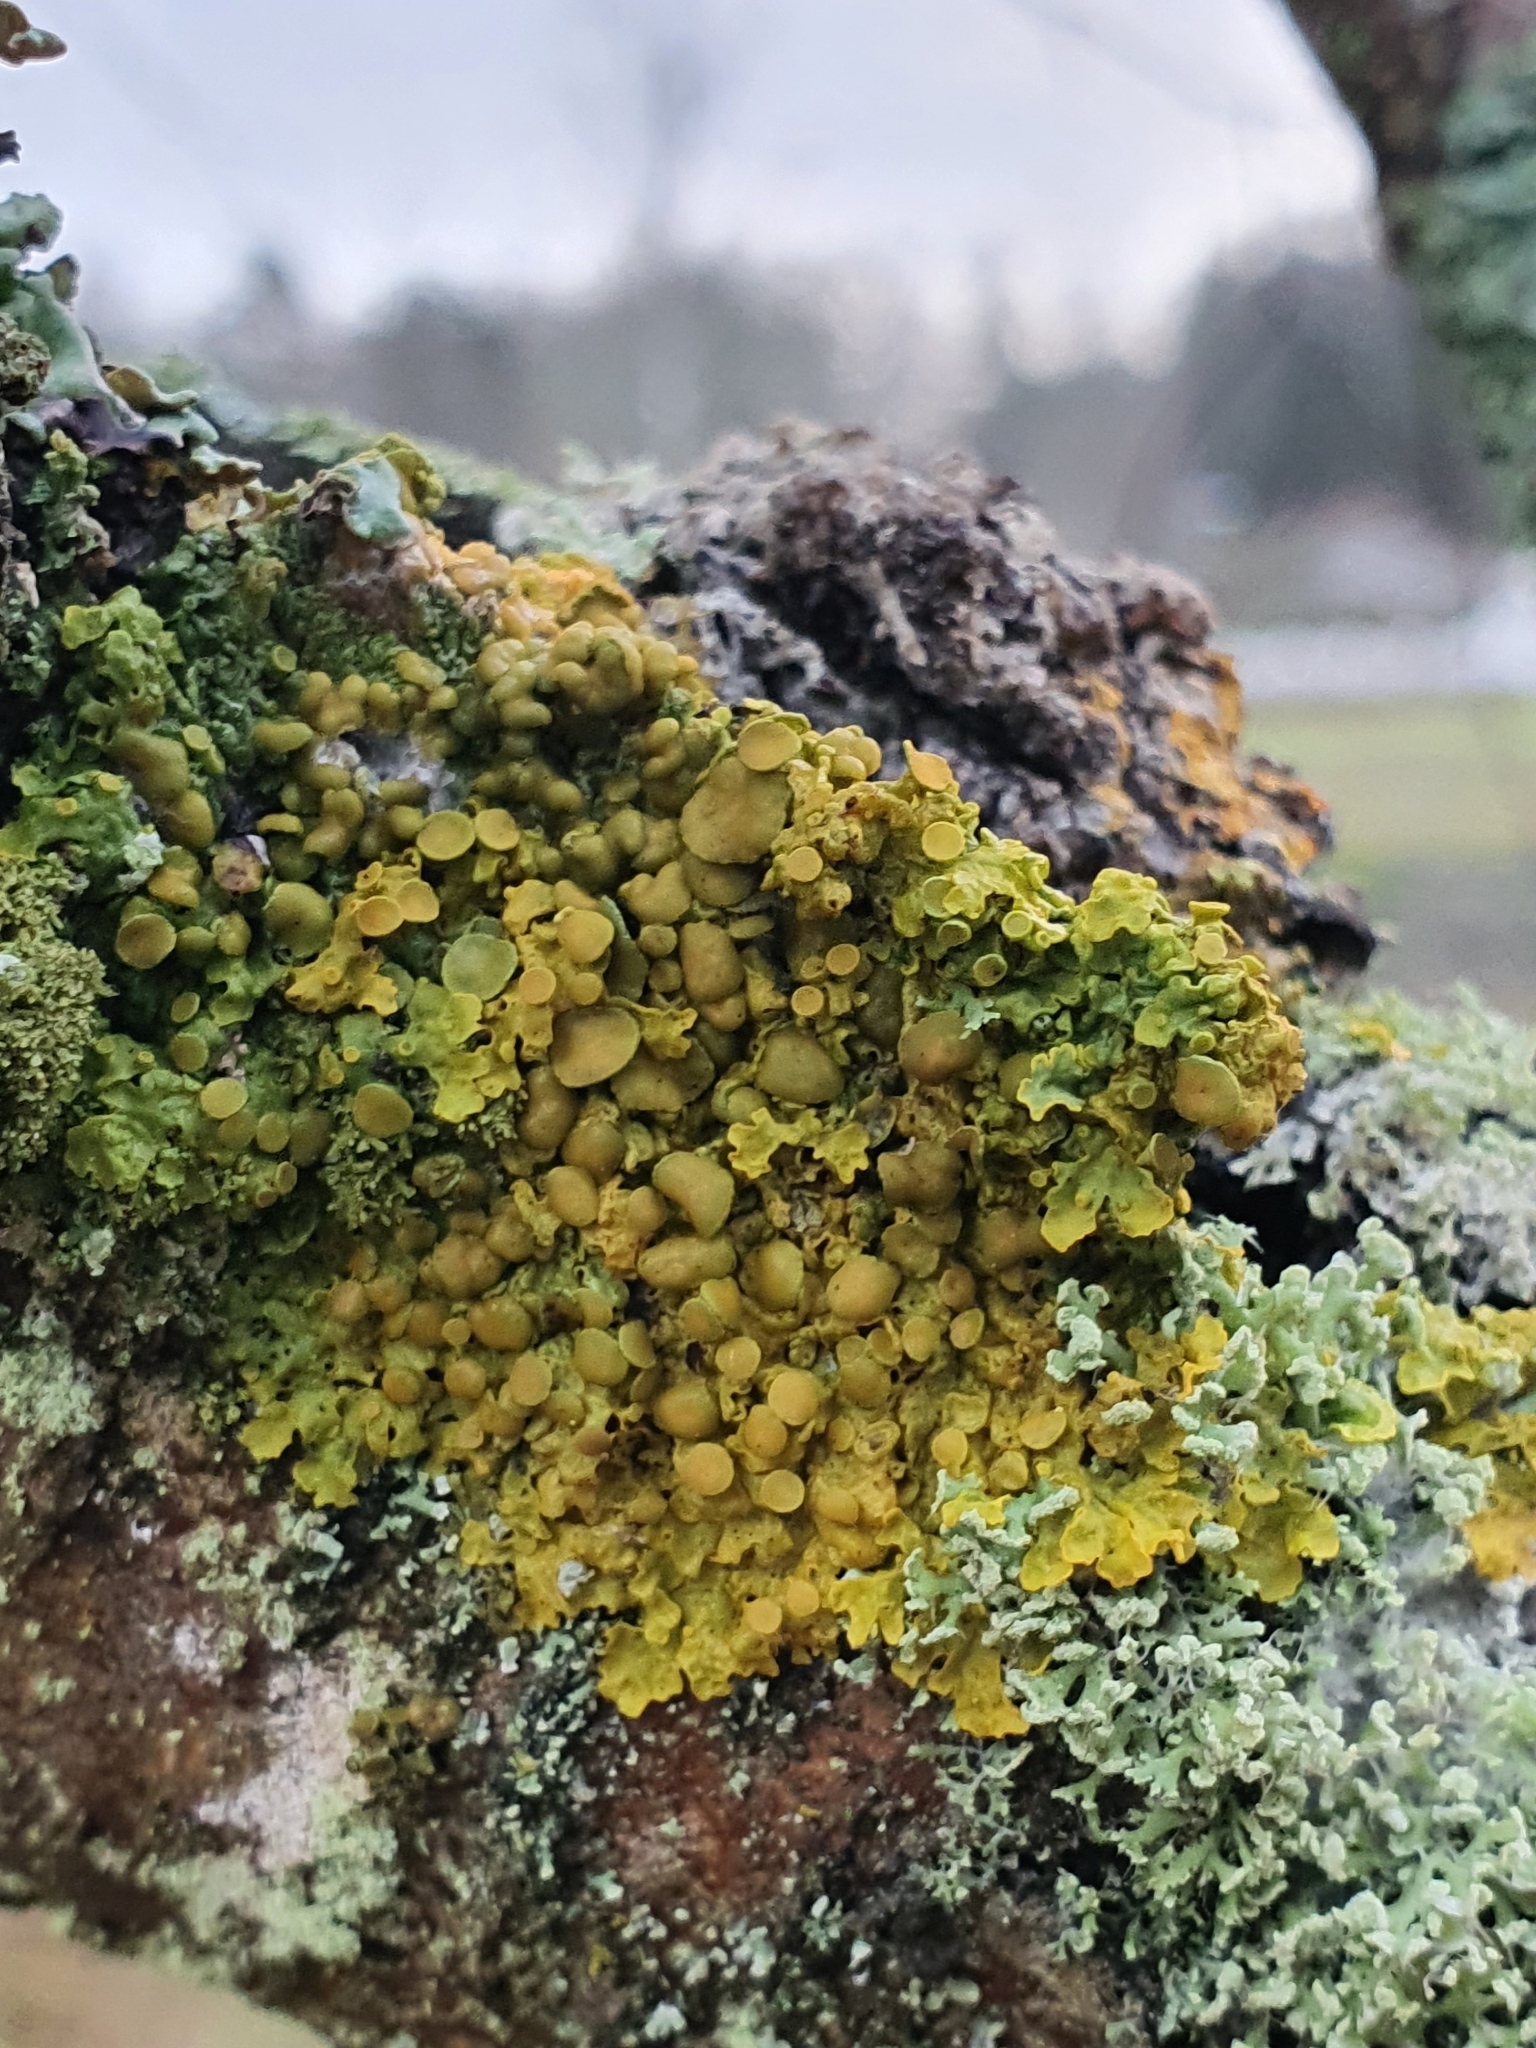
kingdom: Fungi
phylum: Ascomycota
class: Lecanoromycetes
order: Teloschistales
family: Teloschistaceae
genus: Xanthoria
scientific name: Xanthoria parietina
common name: Common orange lichen
